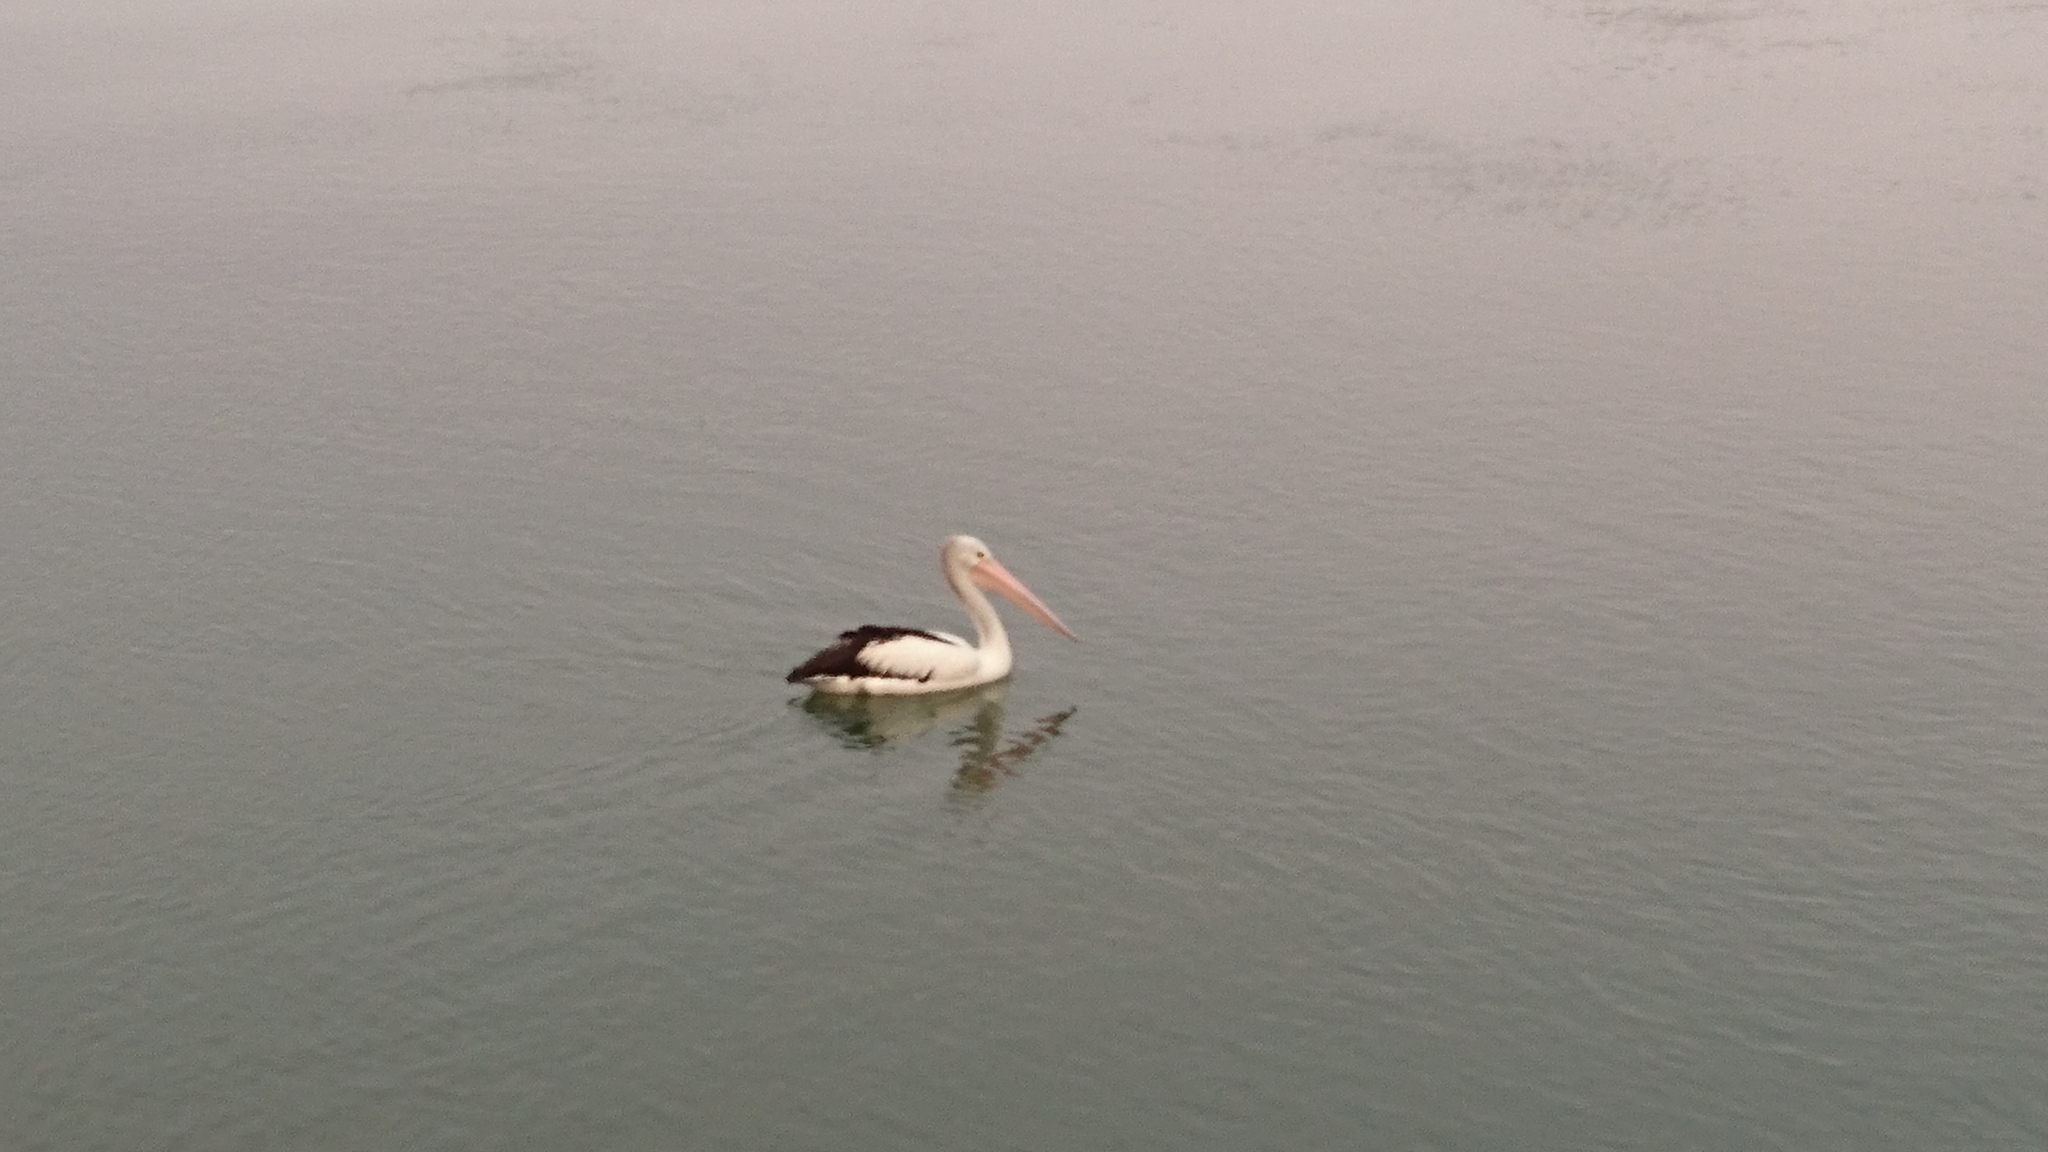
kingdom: Animalia
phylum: Chordata
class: Aves
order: Pelecaniformes
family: Pelecanidae
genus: Pelecanus
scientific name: Pelecanus conspicillatus
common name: Australian pelican
